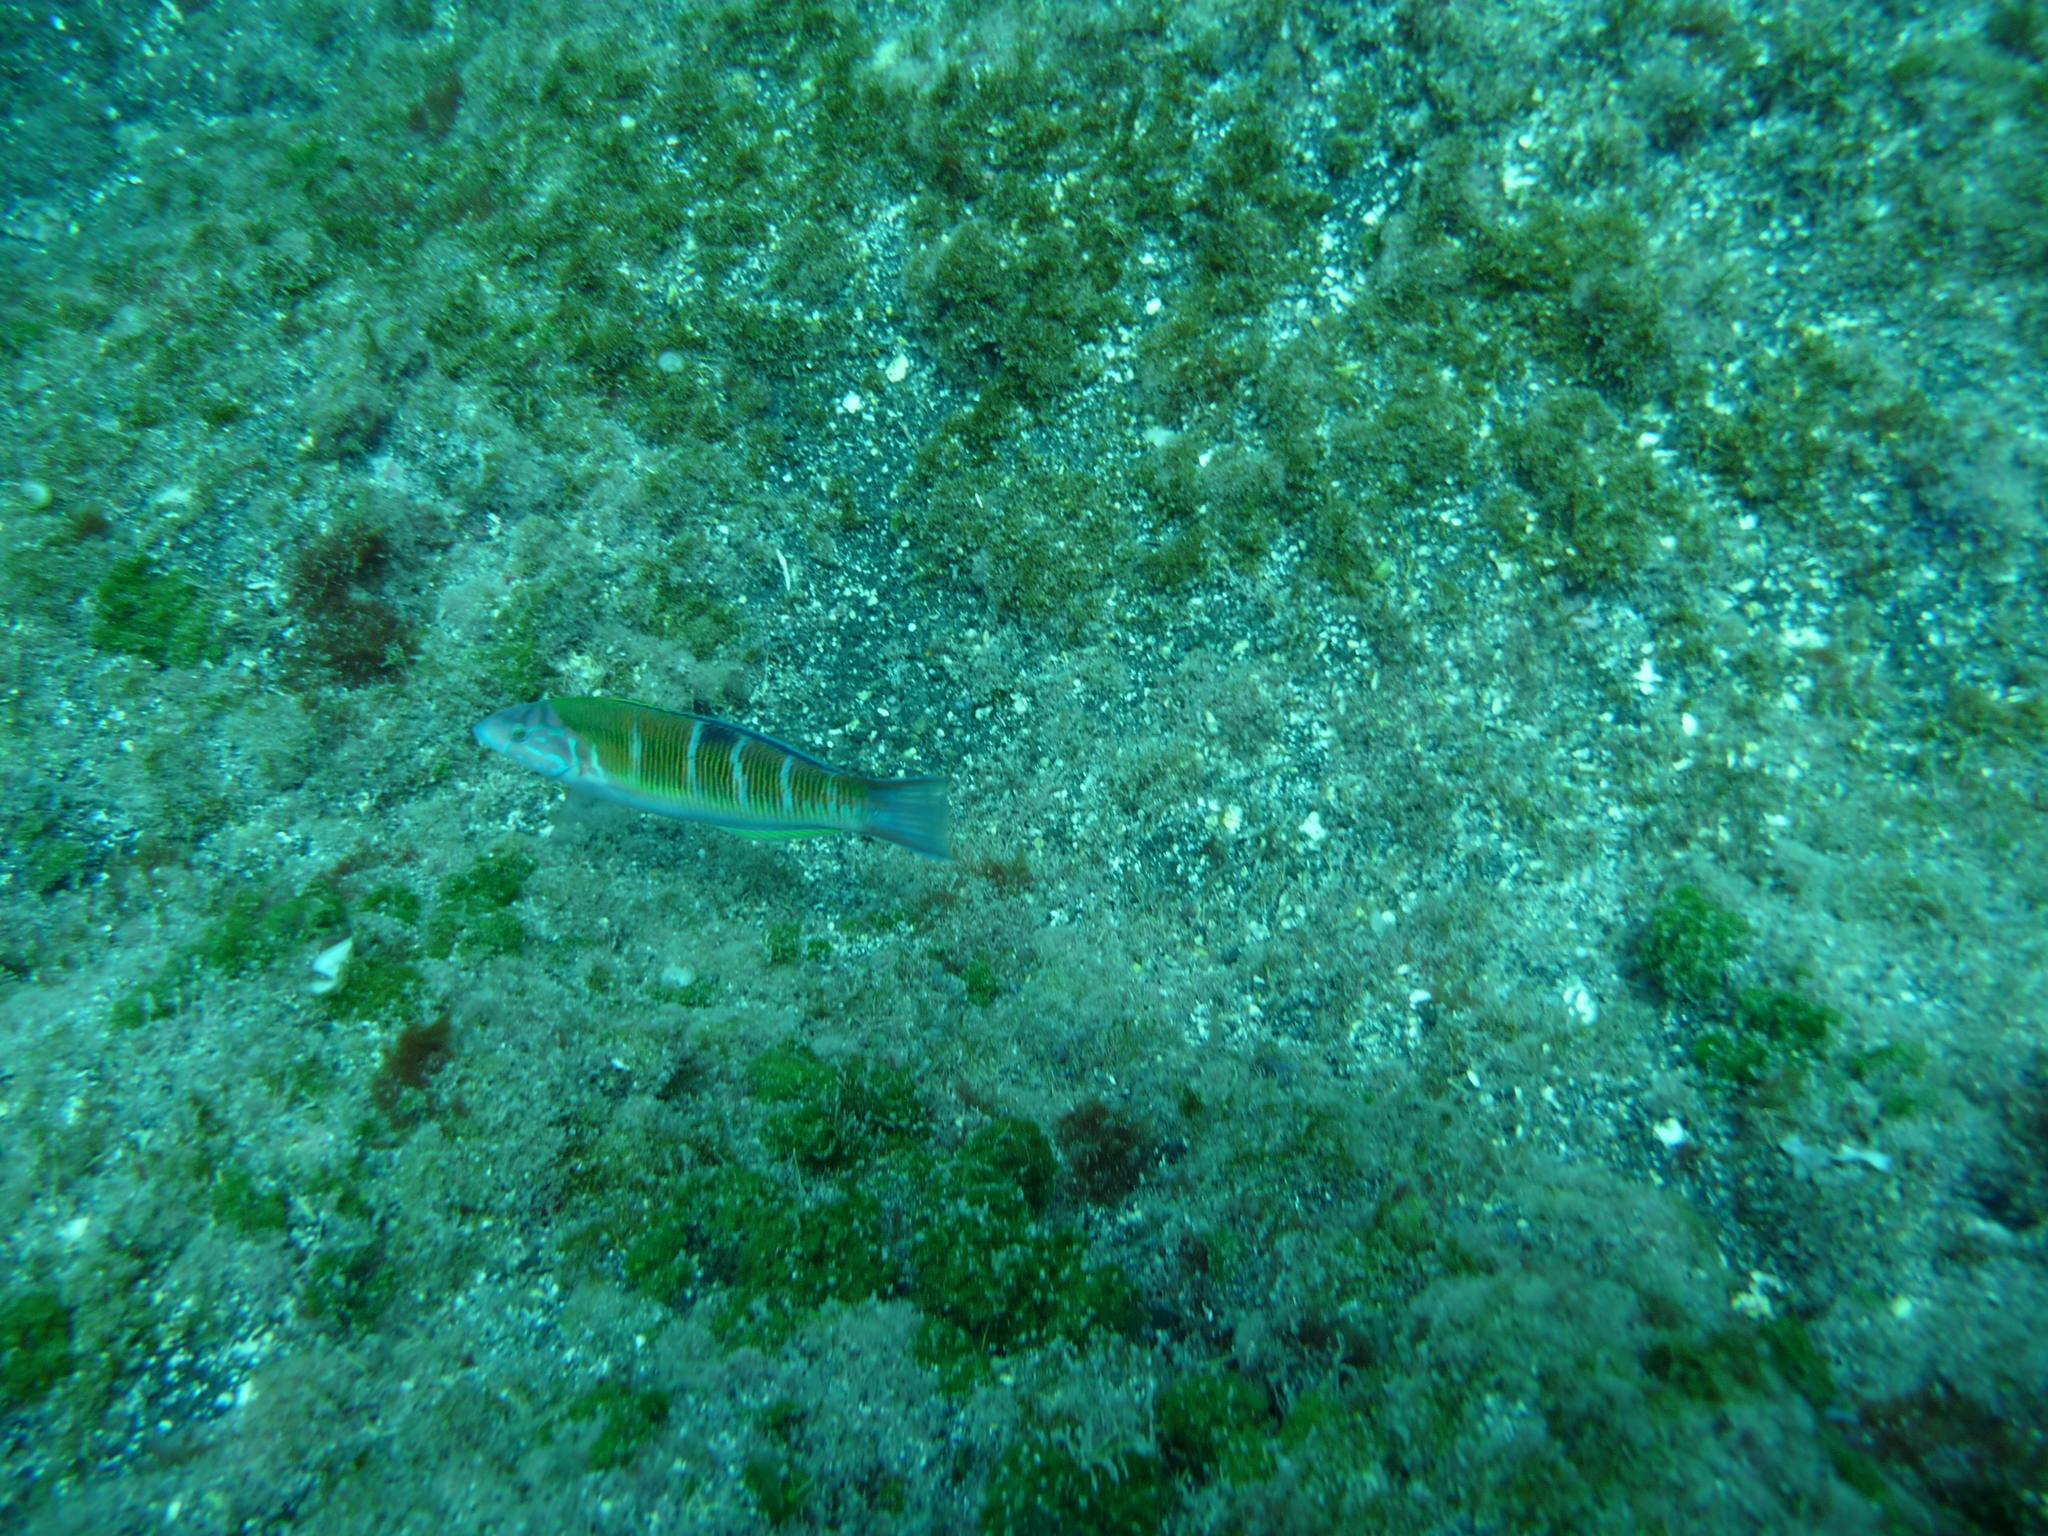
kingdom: Animalia
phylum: Chordata
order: Perciformes
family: Labridae
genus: Thalassoma
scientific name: Thalassoma pavo
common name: Ornate wrasse
